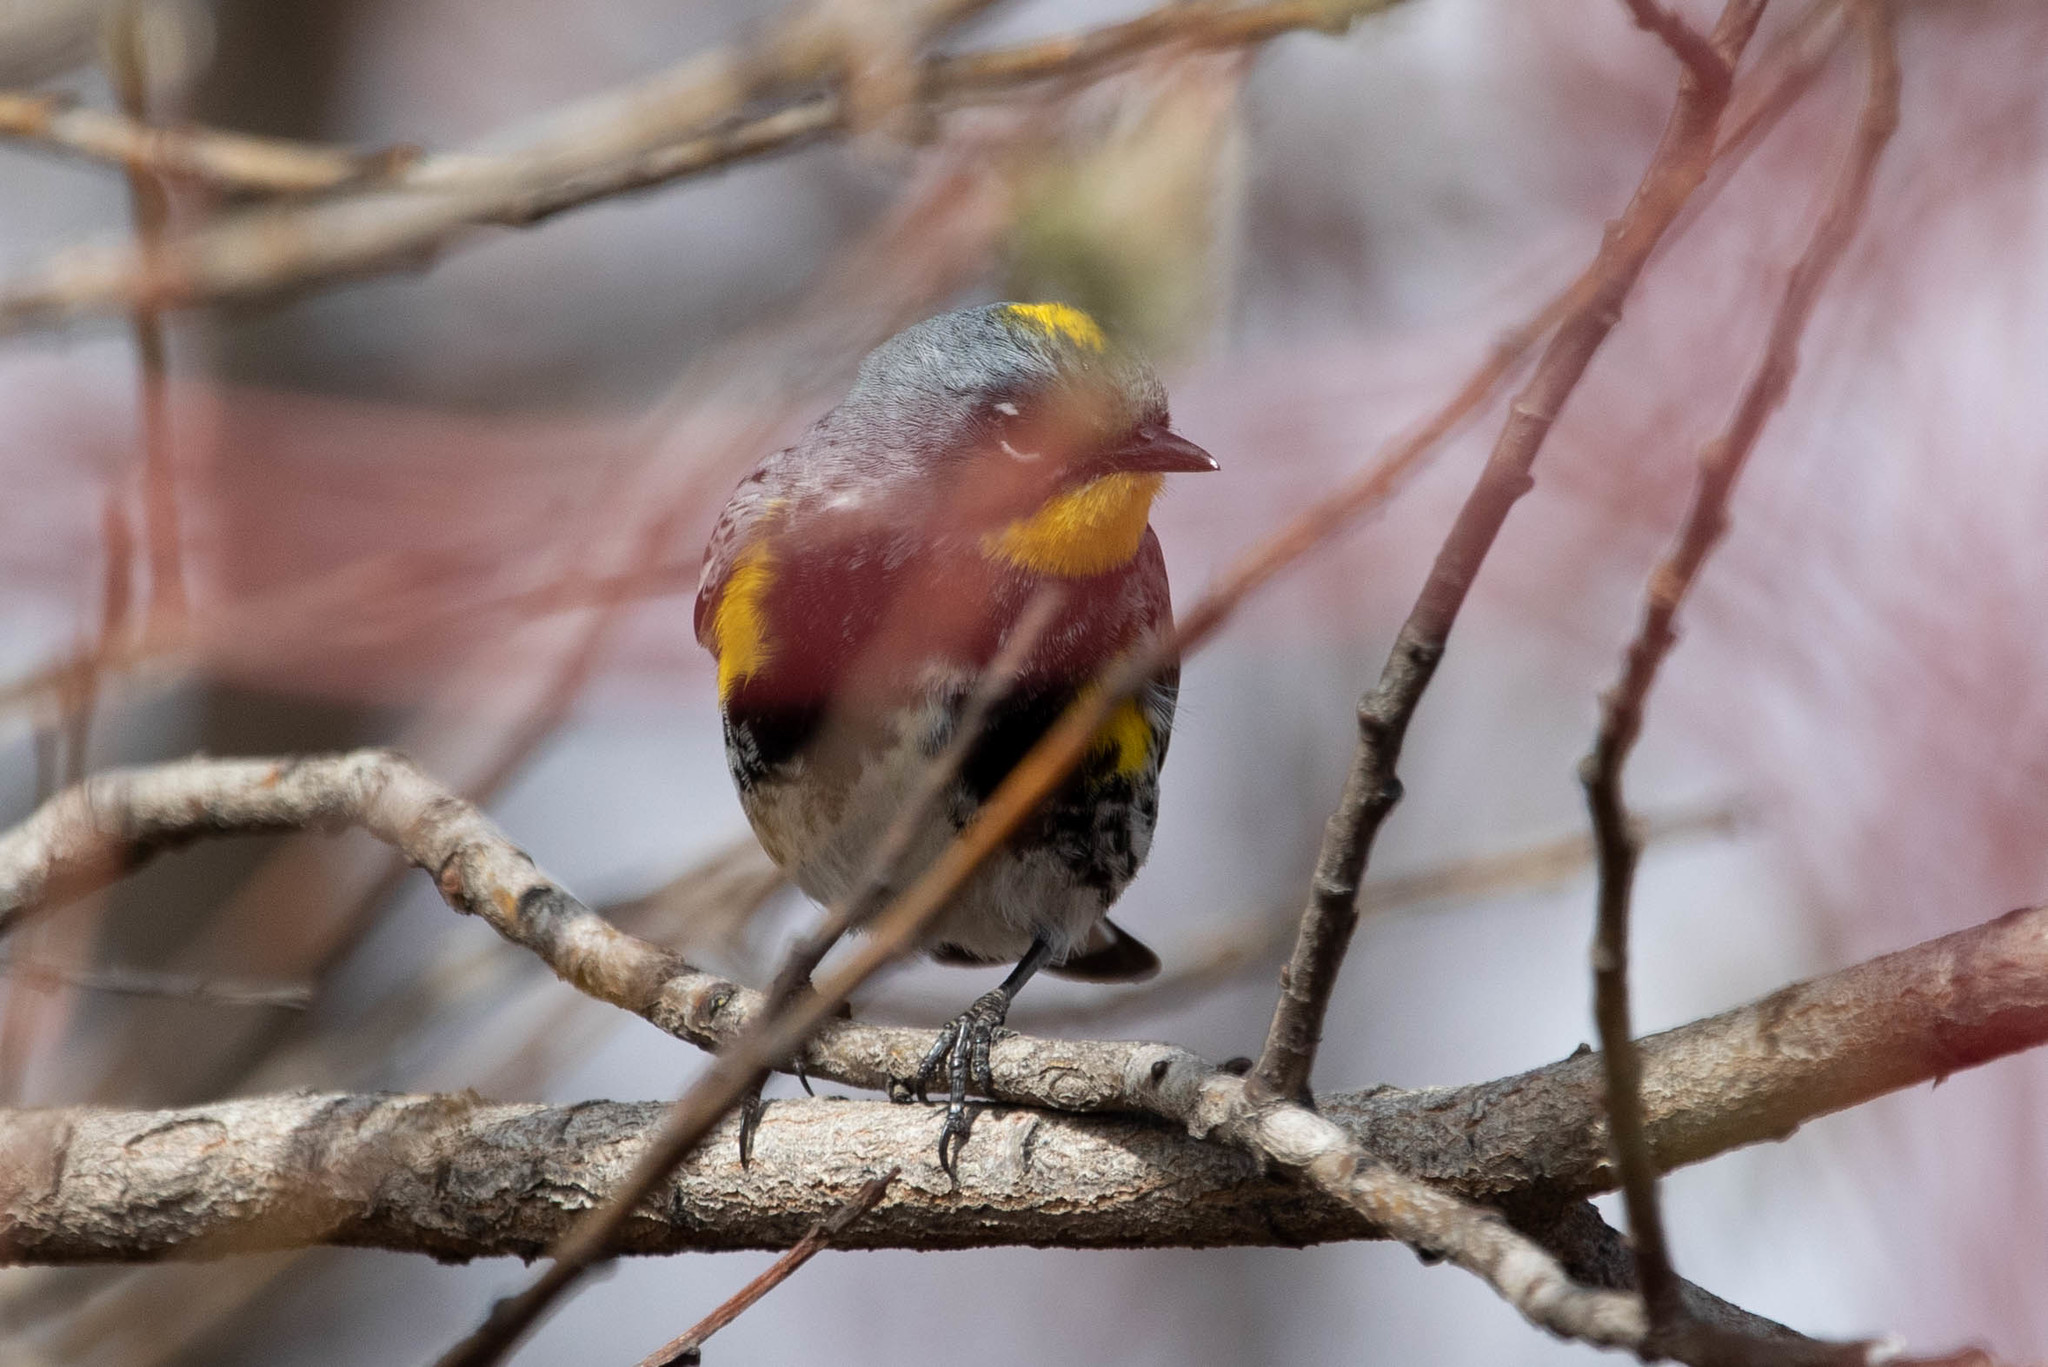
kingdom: Animalia
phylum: Chordata
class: Aves
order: Passeriformes
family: Parulidae
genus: Setophaga
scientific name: Setophaga auduboni
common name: Audubon's warbler
